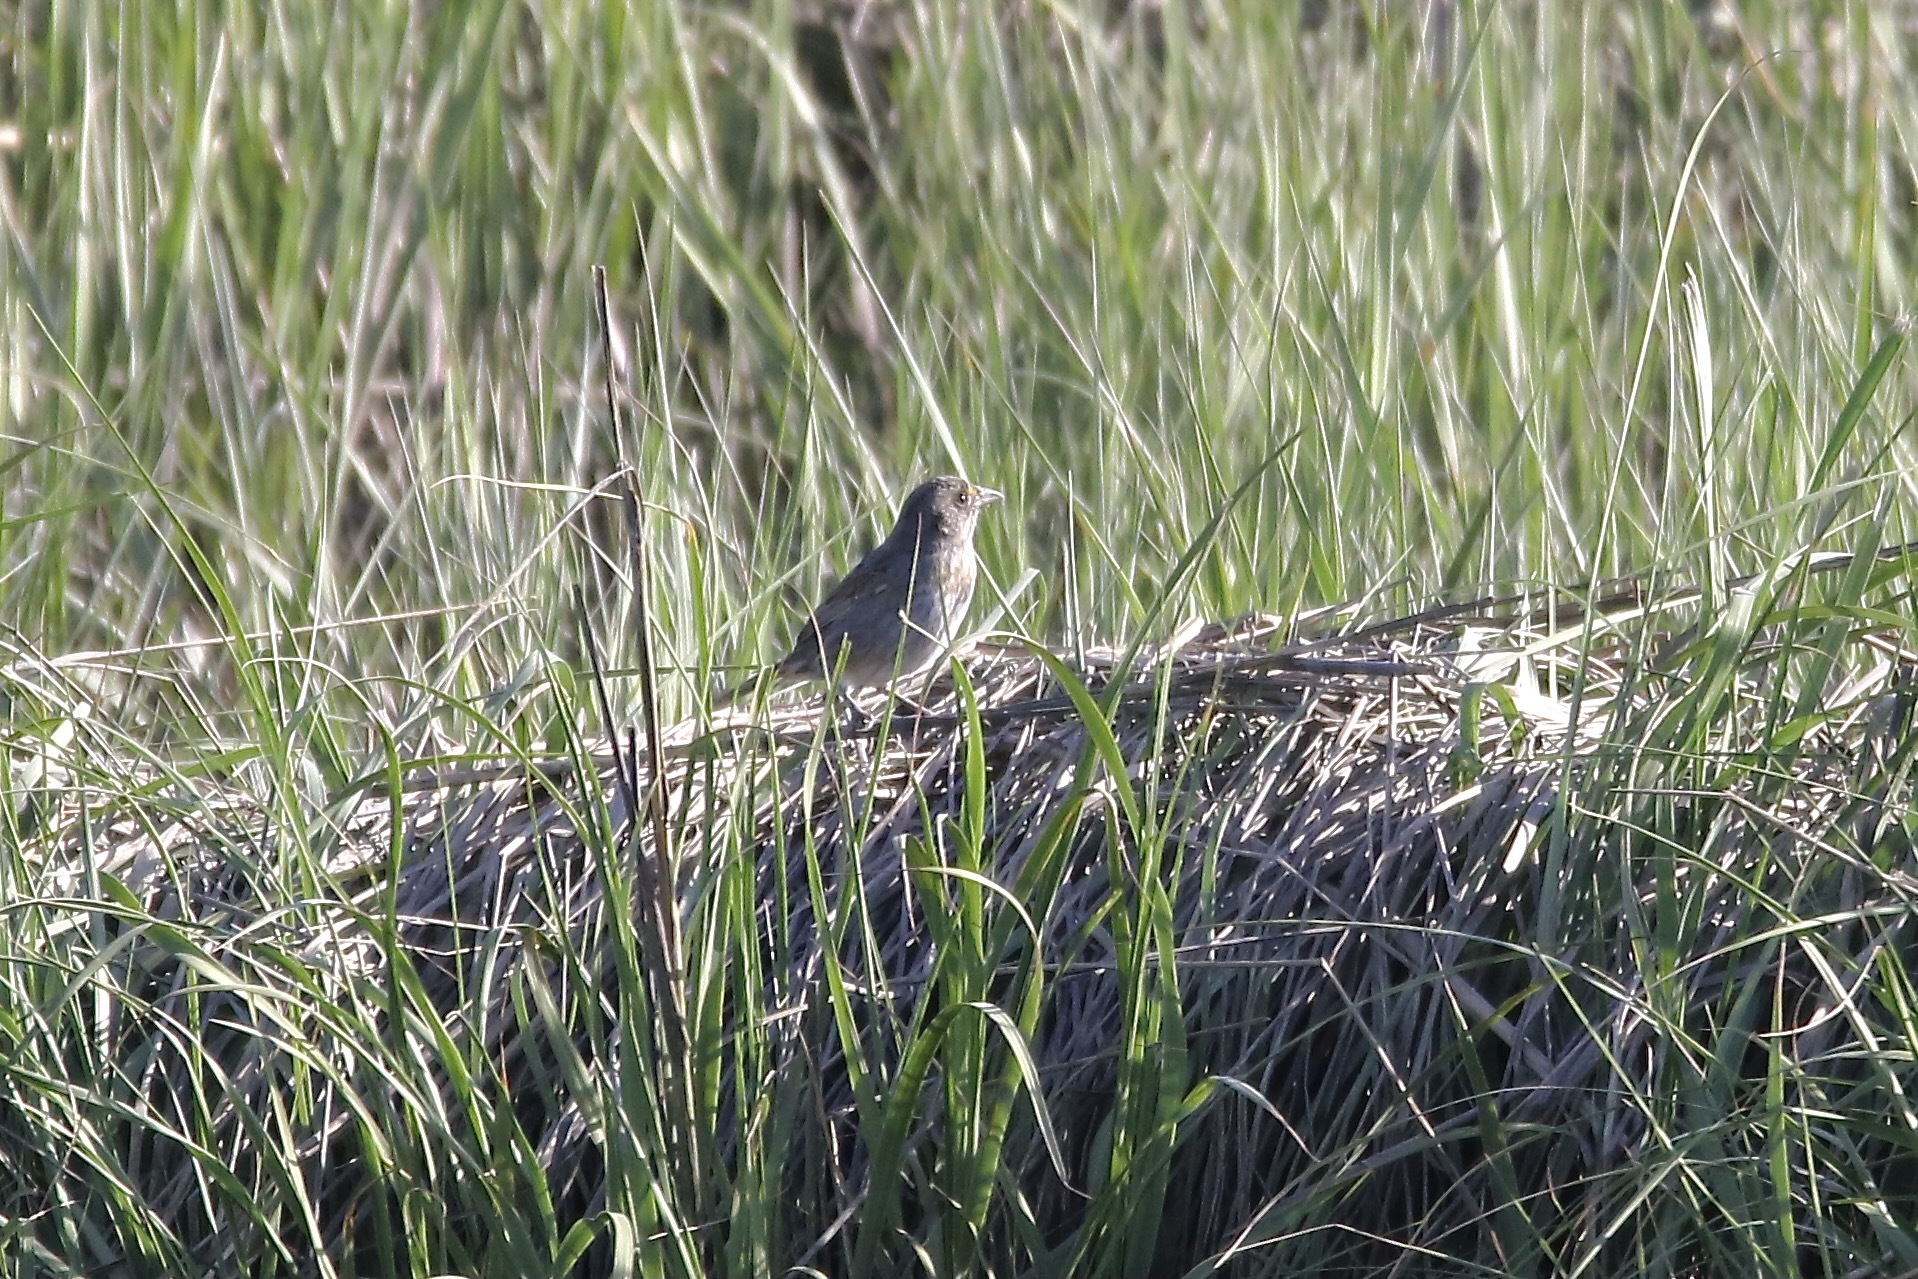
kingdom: Animalia
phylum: Chordata
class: Aves
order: Passeriformes
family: Passerellidae
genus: Ammospiza
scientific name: Ammospiza maritima
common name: Seaside sparrow
